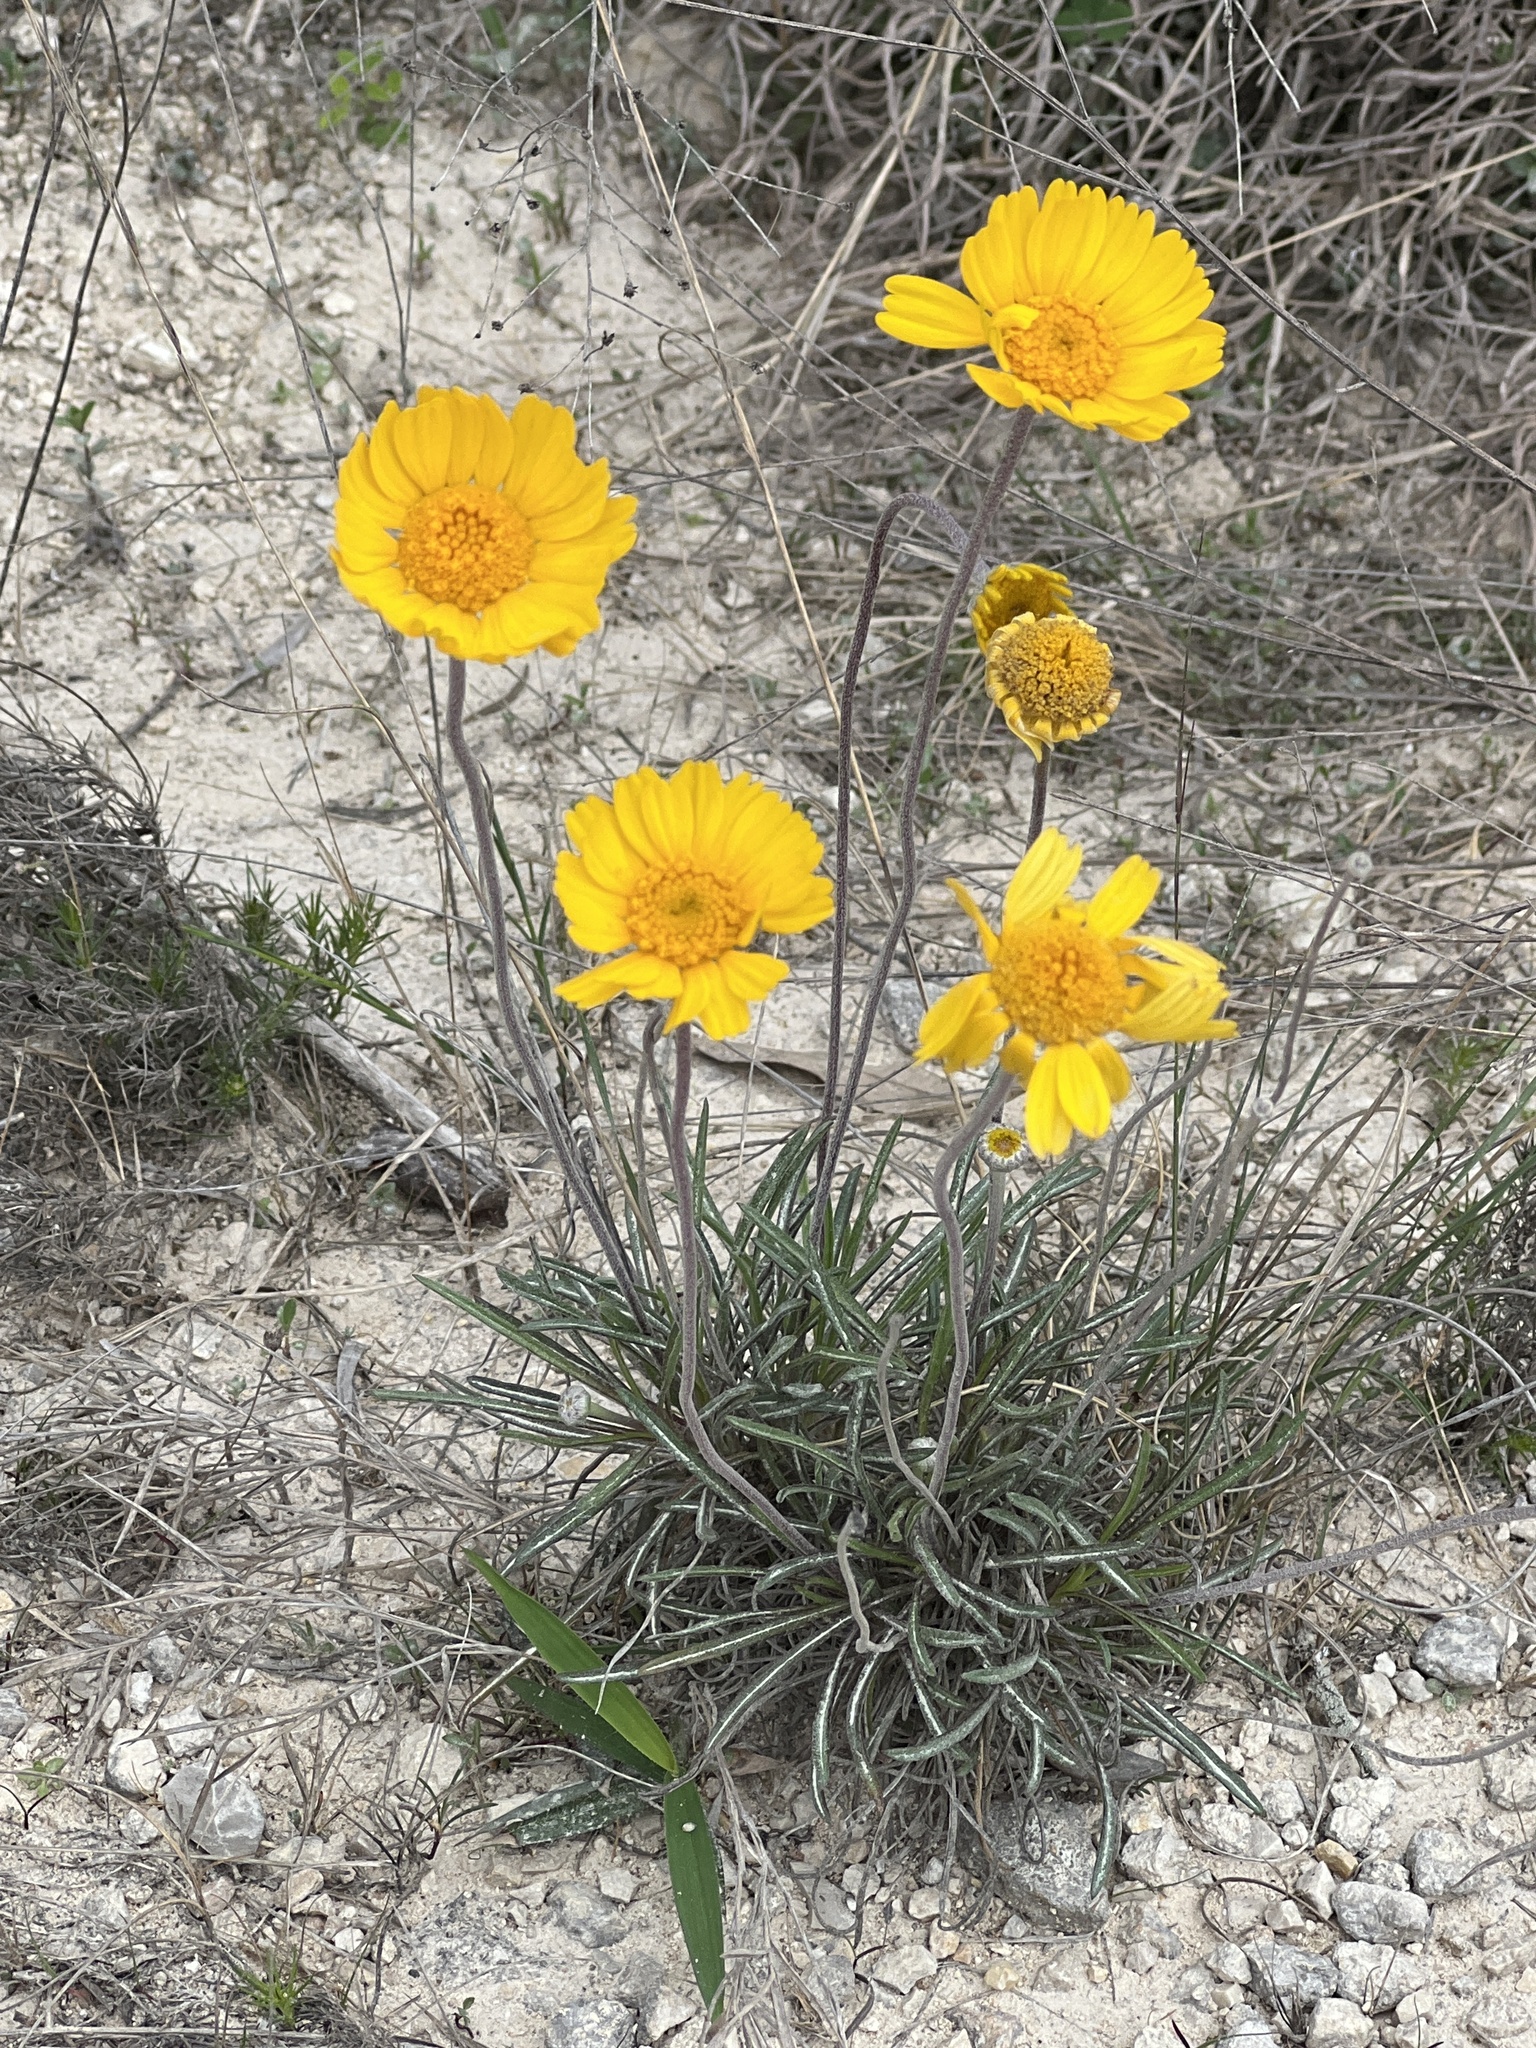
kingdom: Plantae
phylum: Tracheophyta
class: Magnoliopsida
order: Asterales
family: Asteraceae
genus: Tetraneuris
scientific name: Tetraneuris scaposa
